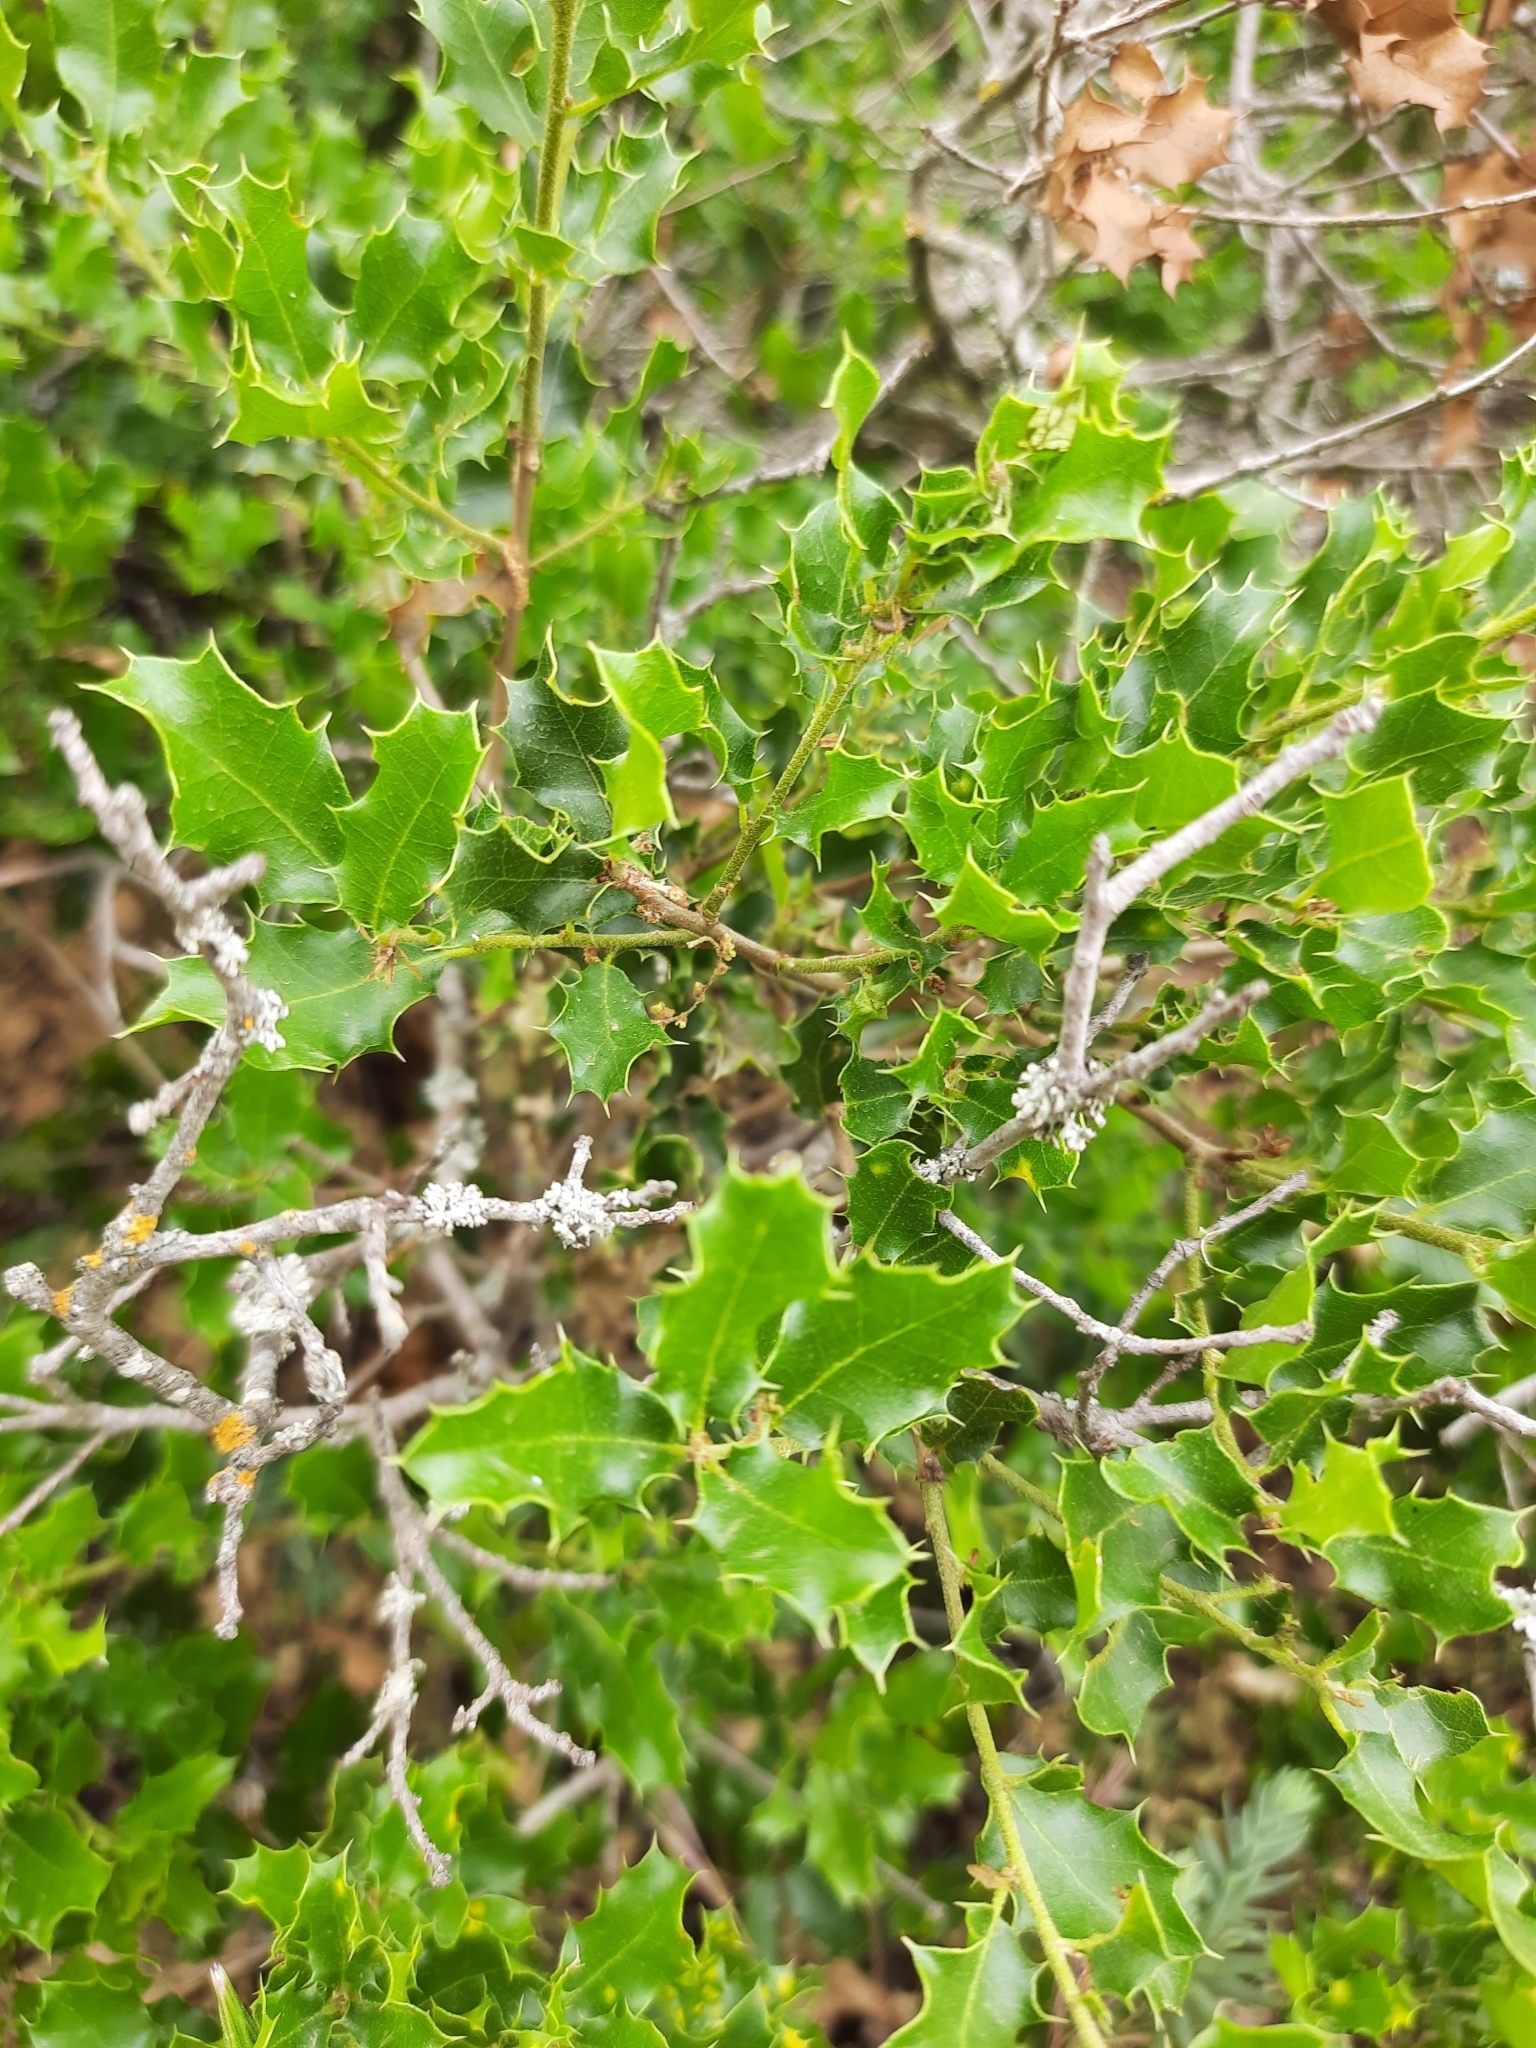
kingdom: Plantae
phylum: Tracheophyta
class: Magnoliopsida
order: Fagales
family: Fagaceae
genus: Quercus
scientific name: Quercus coccifera
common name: Kermes oak
